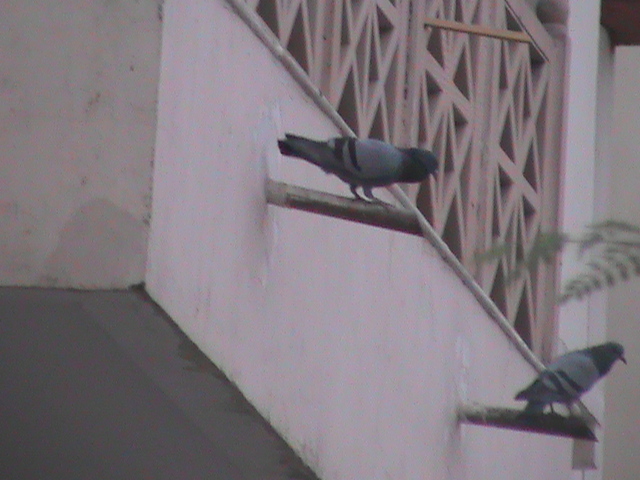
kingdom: Animalia
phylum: Chordata
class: Aves
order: Columbiformes
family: Columbidae
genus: Columba
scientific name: Columba livia
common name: Rock pigeon
